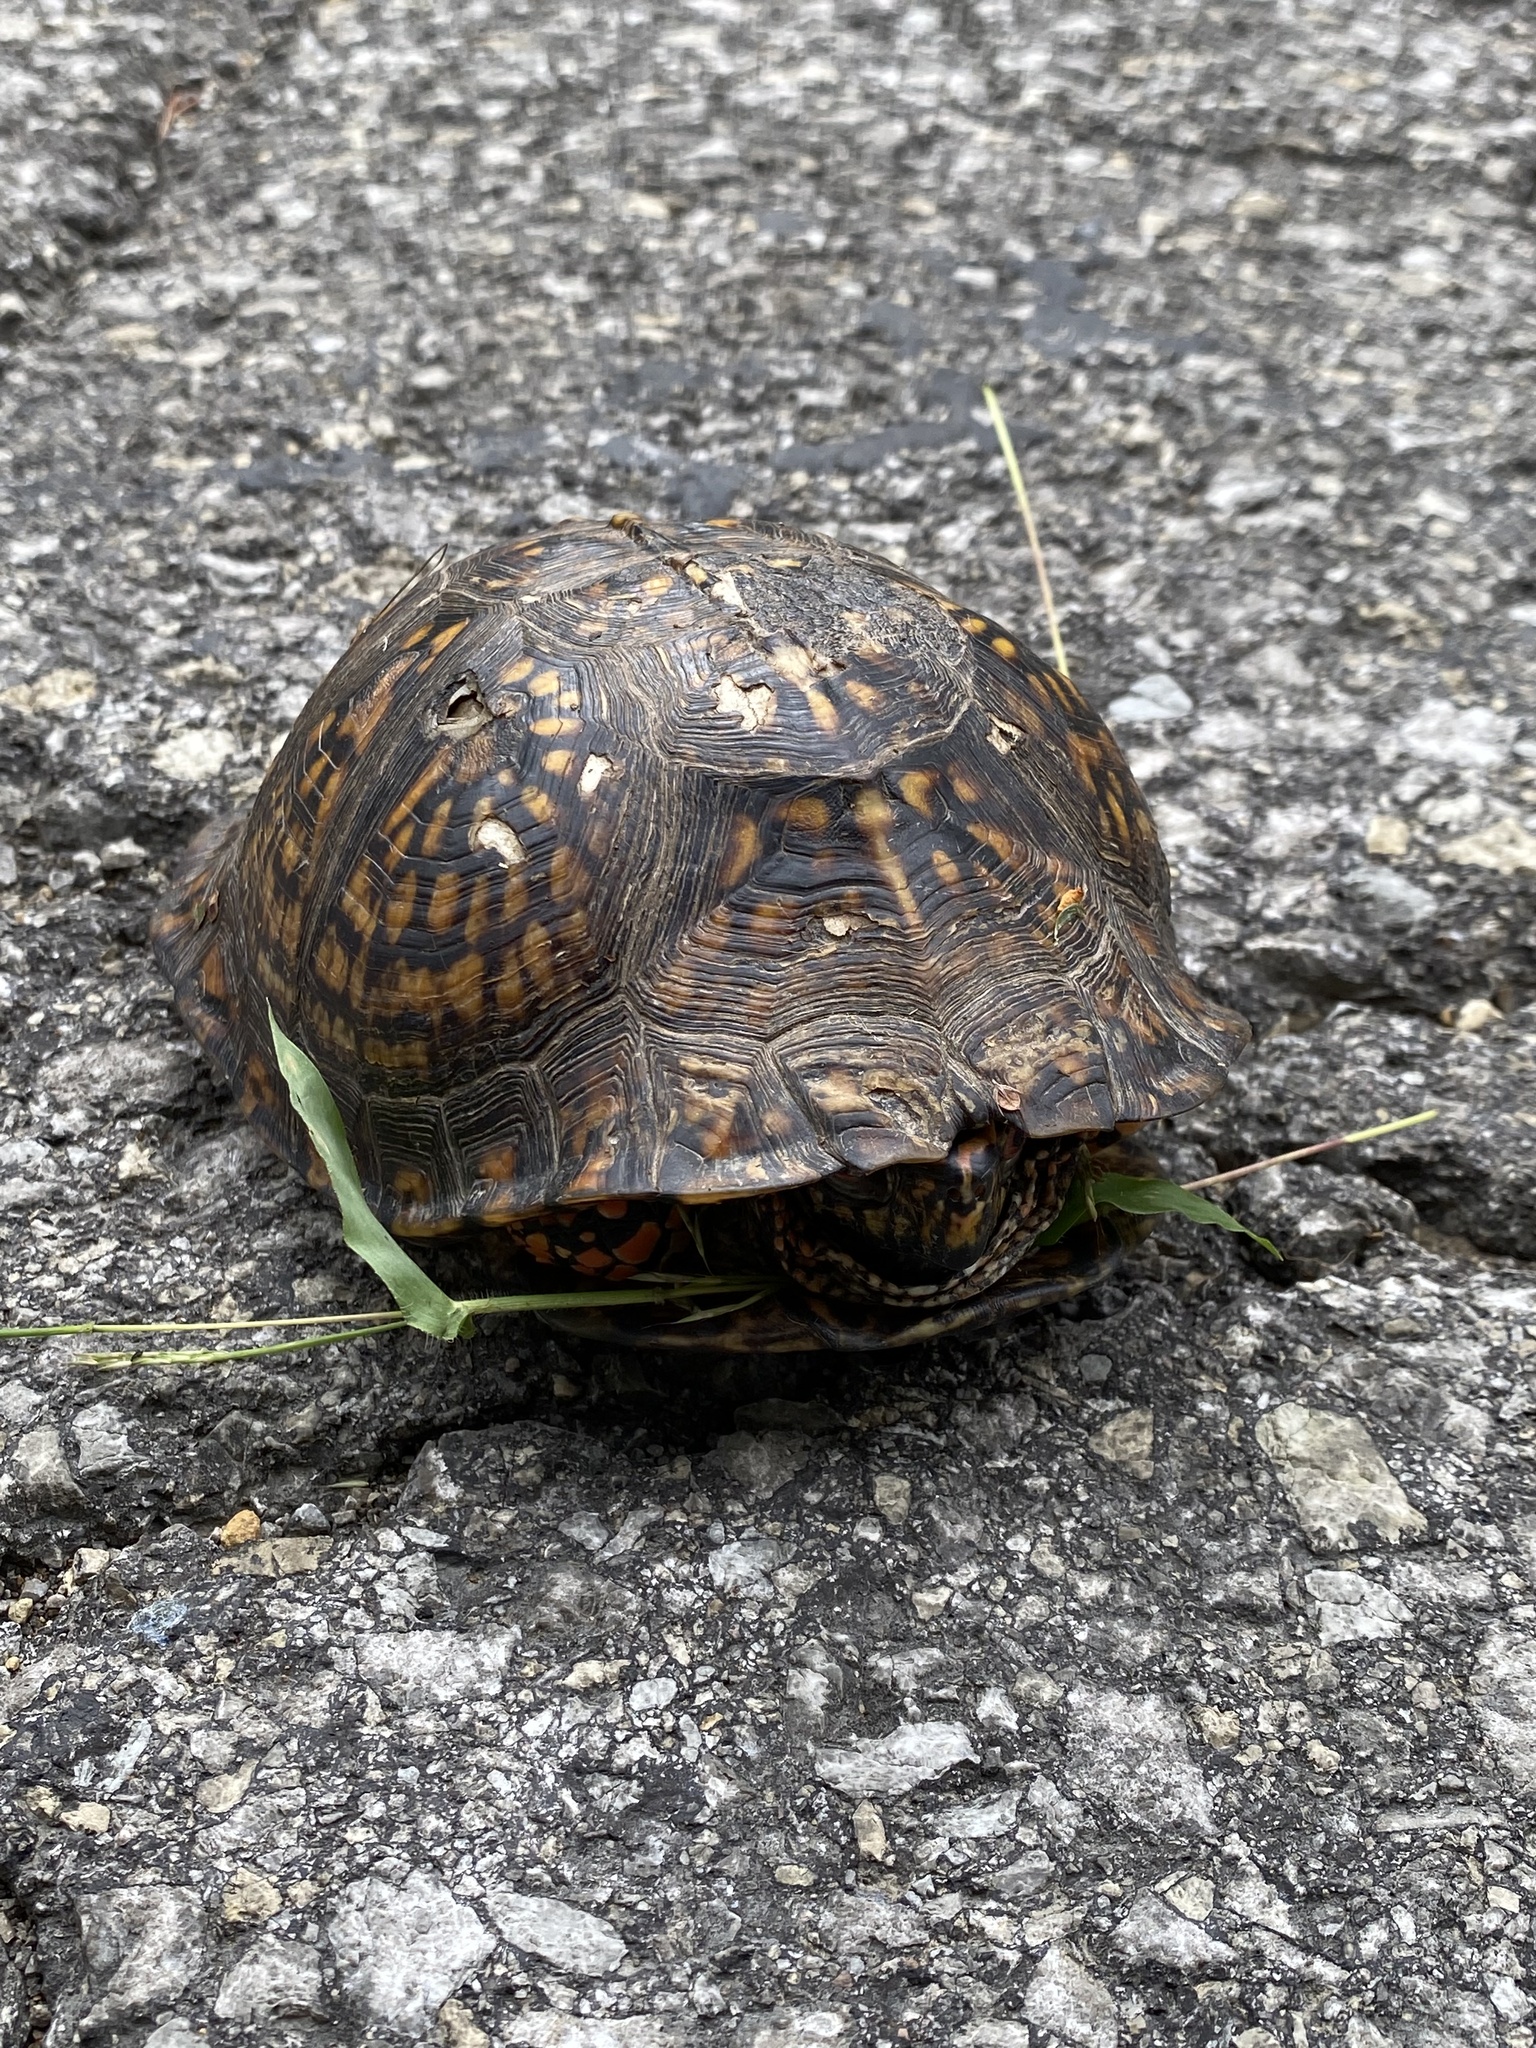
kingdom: Animalia
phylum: Chordata
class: Testudines
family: Emydidae
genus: Terrapene
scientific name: Terrapene carolina
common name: Common box turtle
